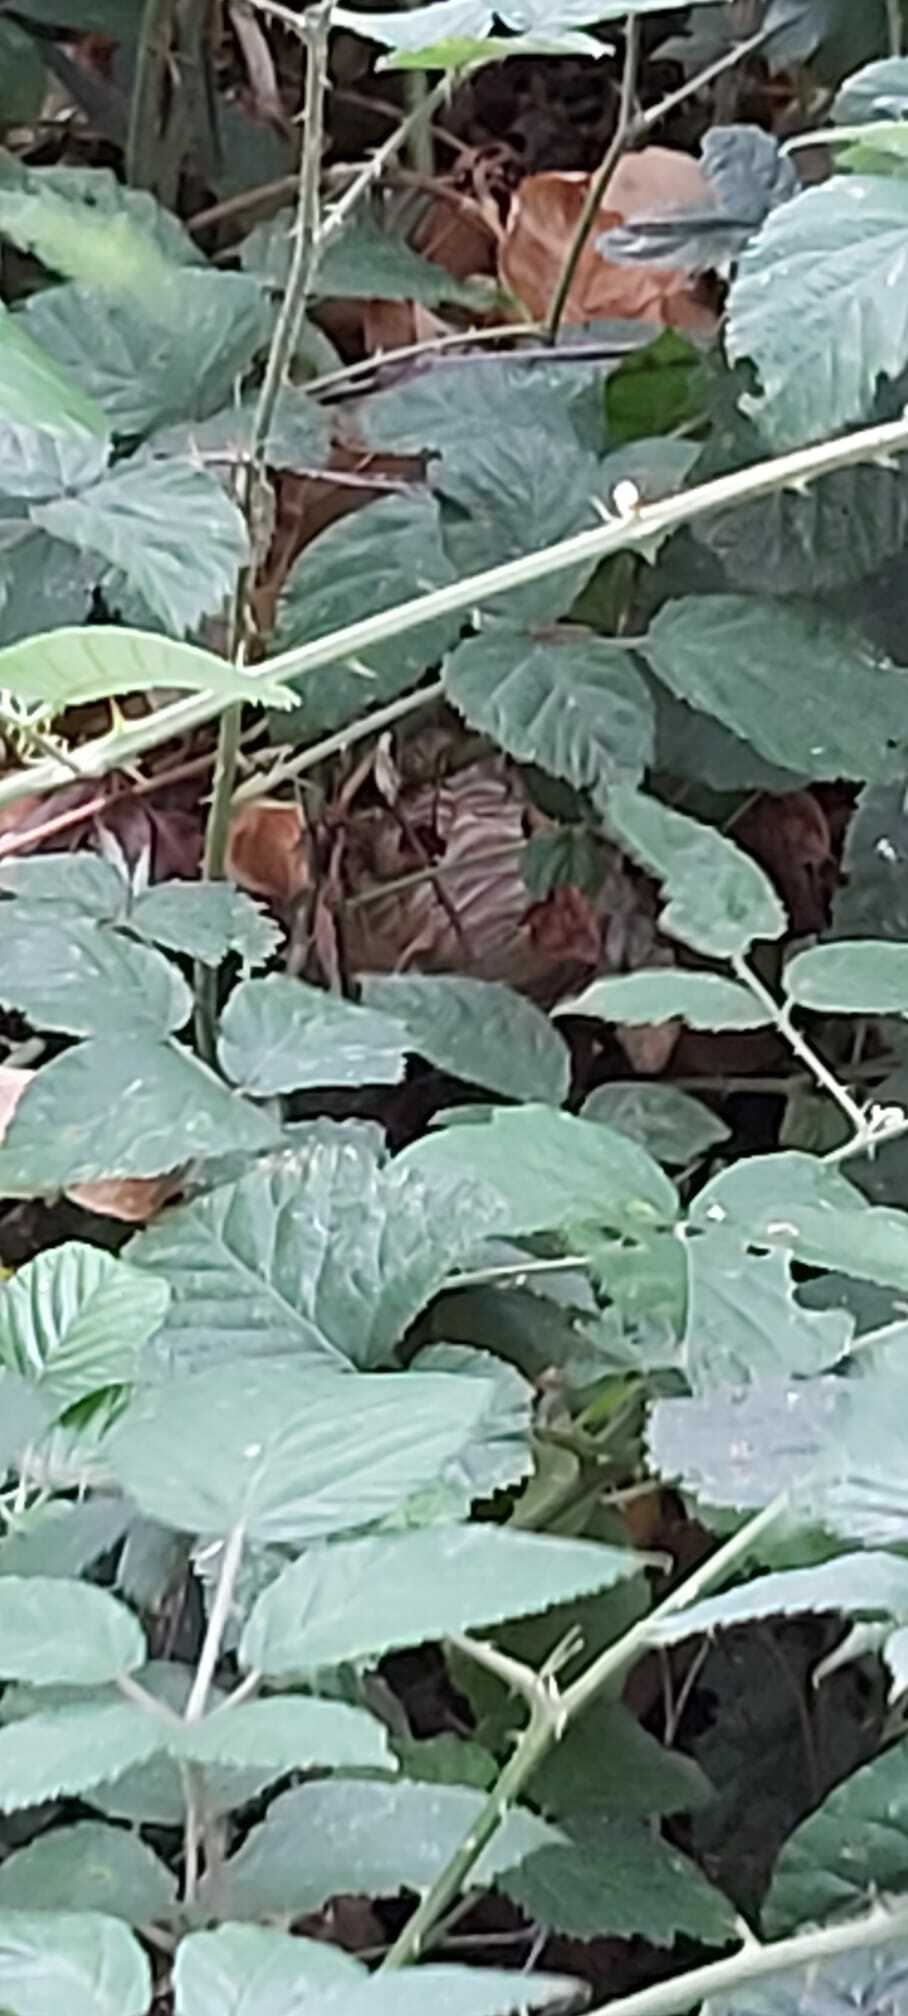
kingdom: Animalia
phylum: Arthropoda
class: Insecta
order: Hymenoptera
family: Vespidae
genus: Vespa
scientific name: Vespa velutina
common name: Asian hornet
